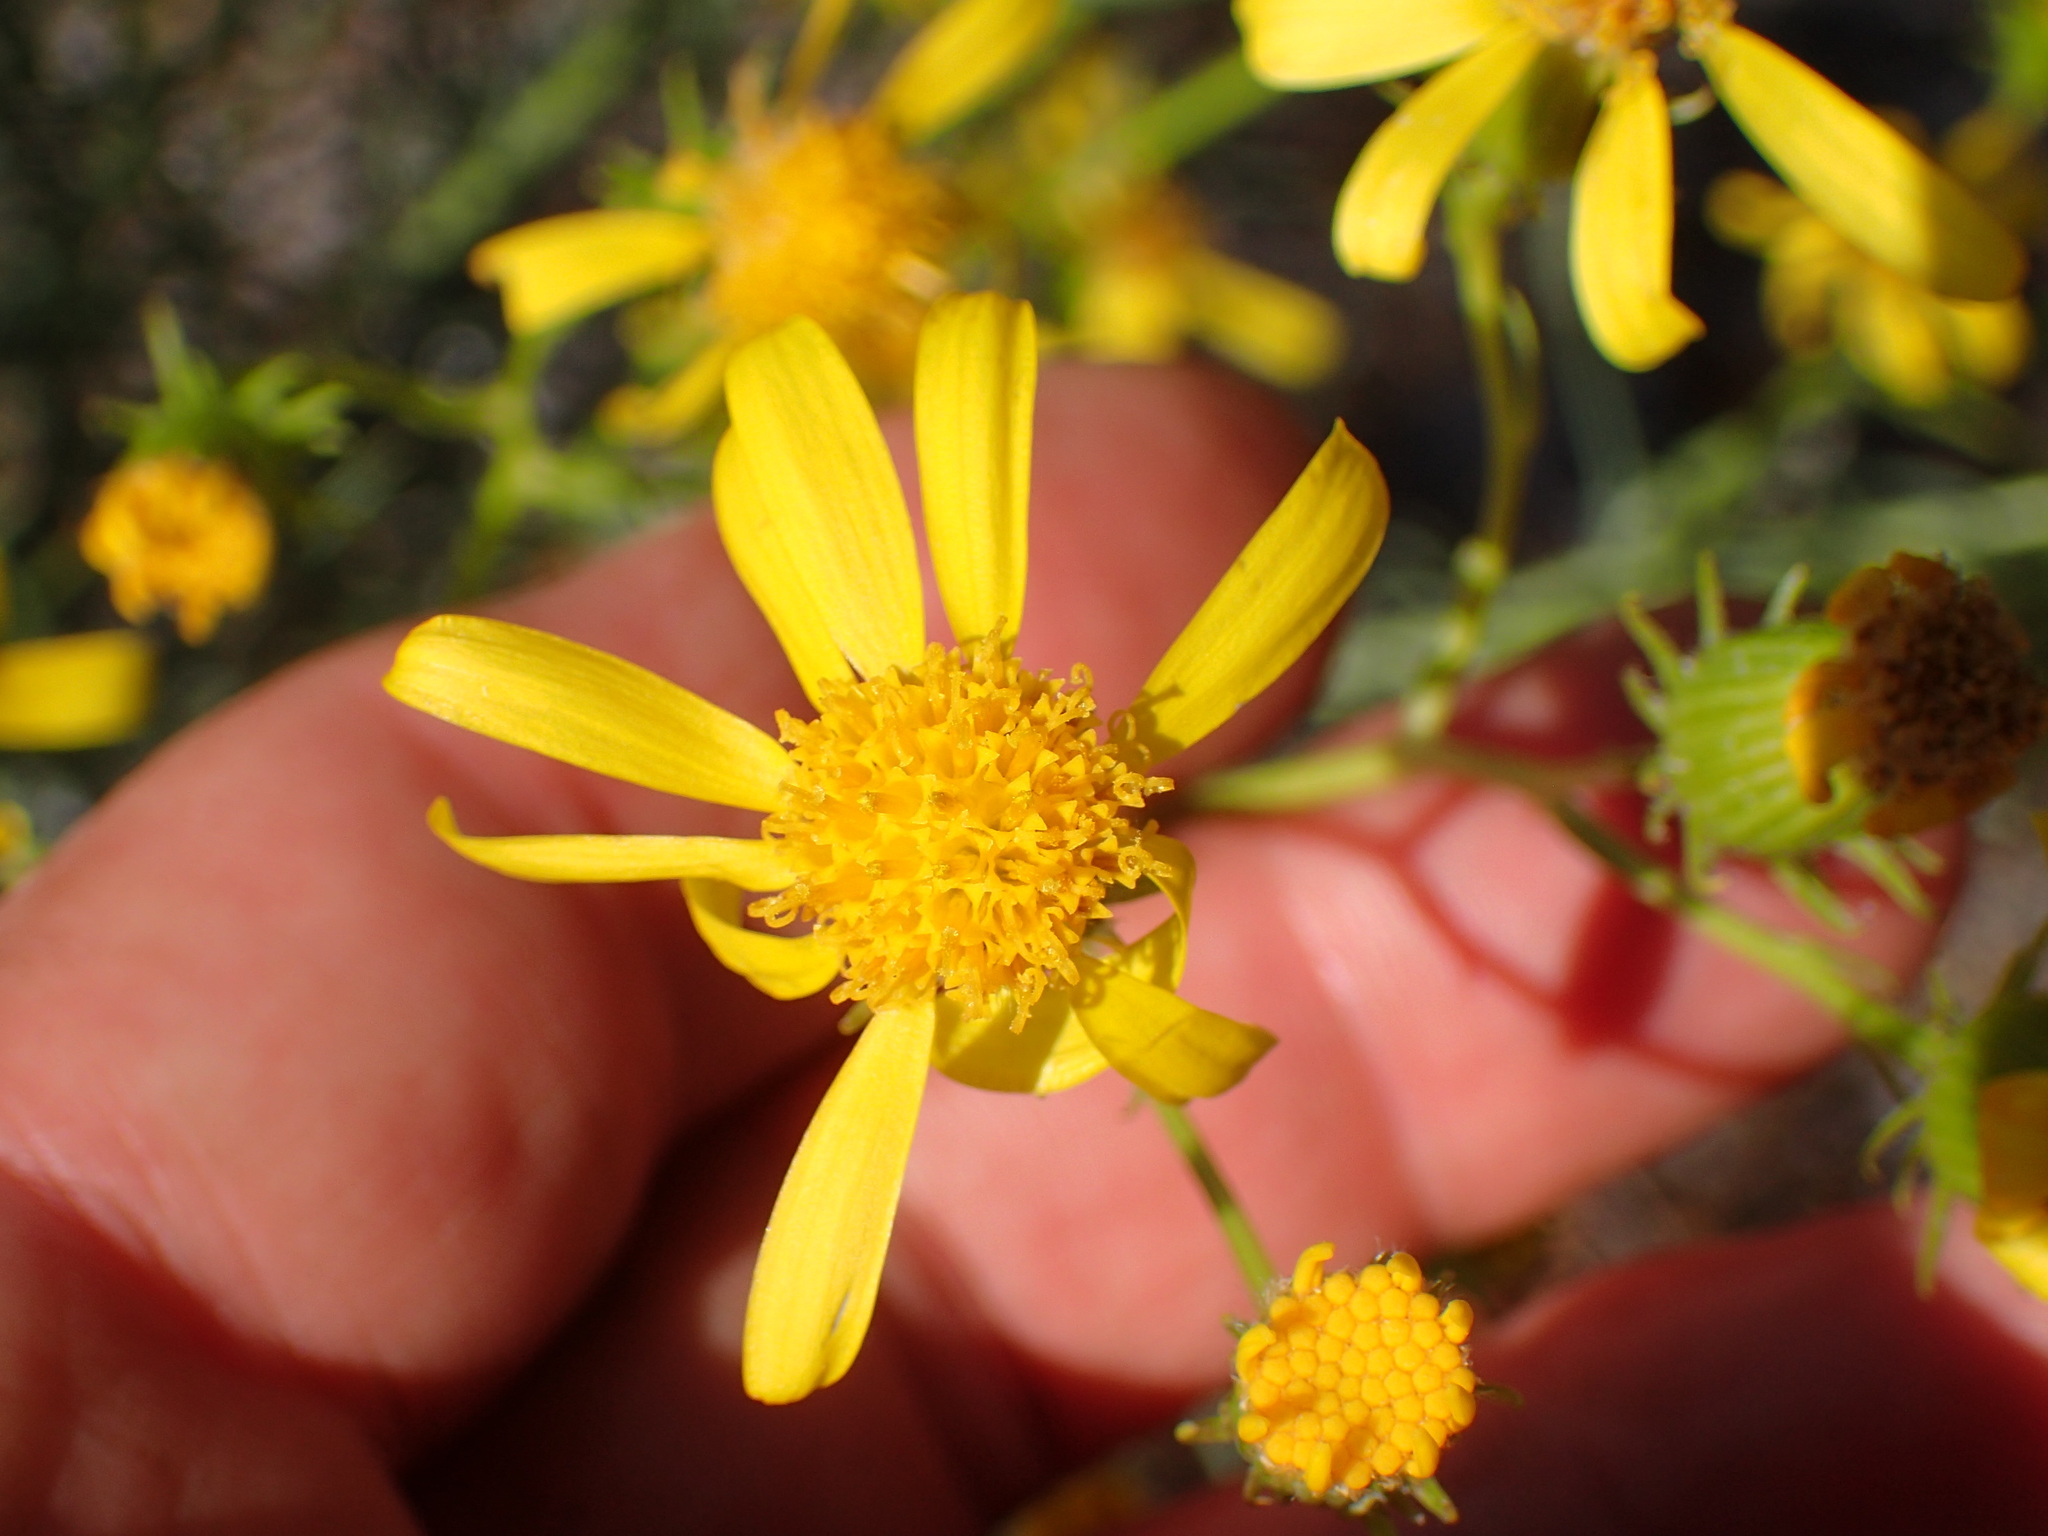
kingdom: Plantae
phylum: Tracheophyta
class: Magnoliopsida
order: Asterales
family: Asteraceae
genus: Senecio
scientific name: Senecio flaccidus
